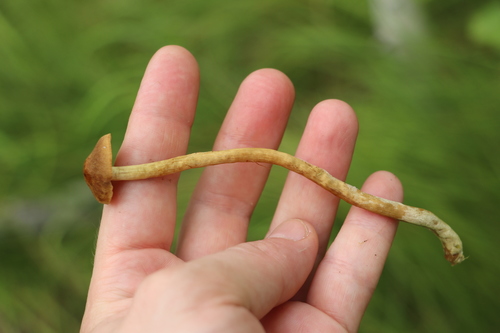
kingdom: Fungi
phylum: Basidiomycota
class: Agaricomycetes
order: Agaricales
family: Cortinariaceae
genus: Cortinarius
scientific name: Cortinarius tubarius
